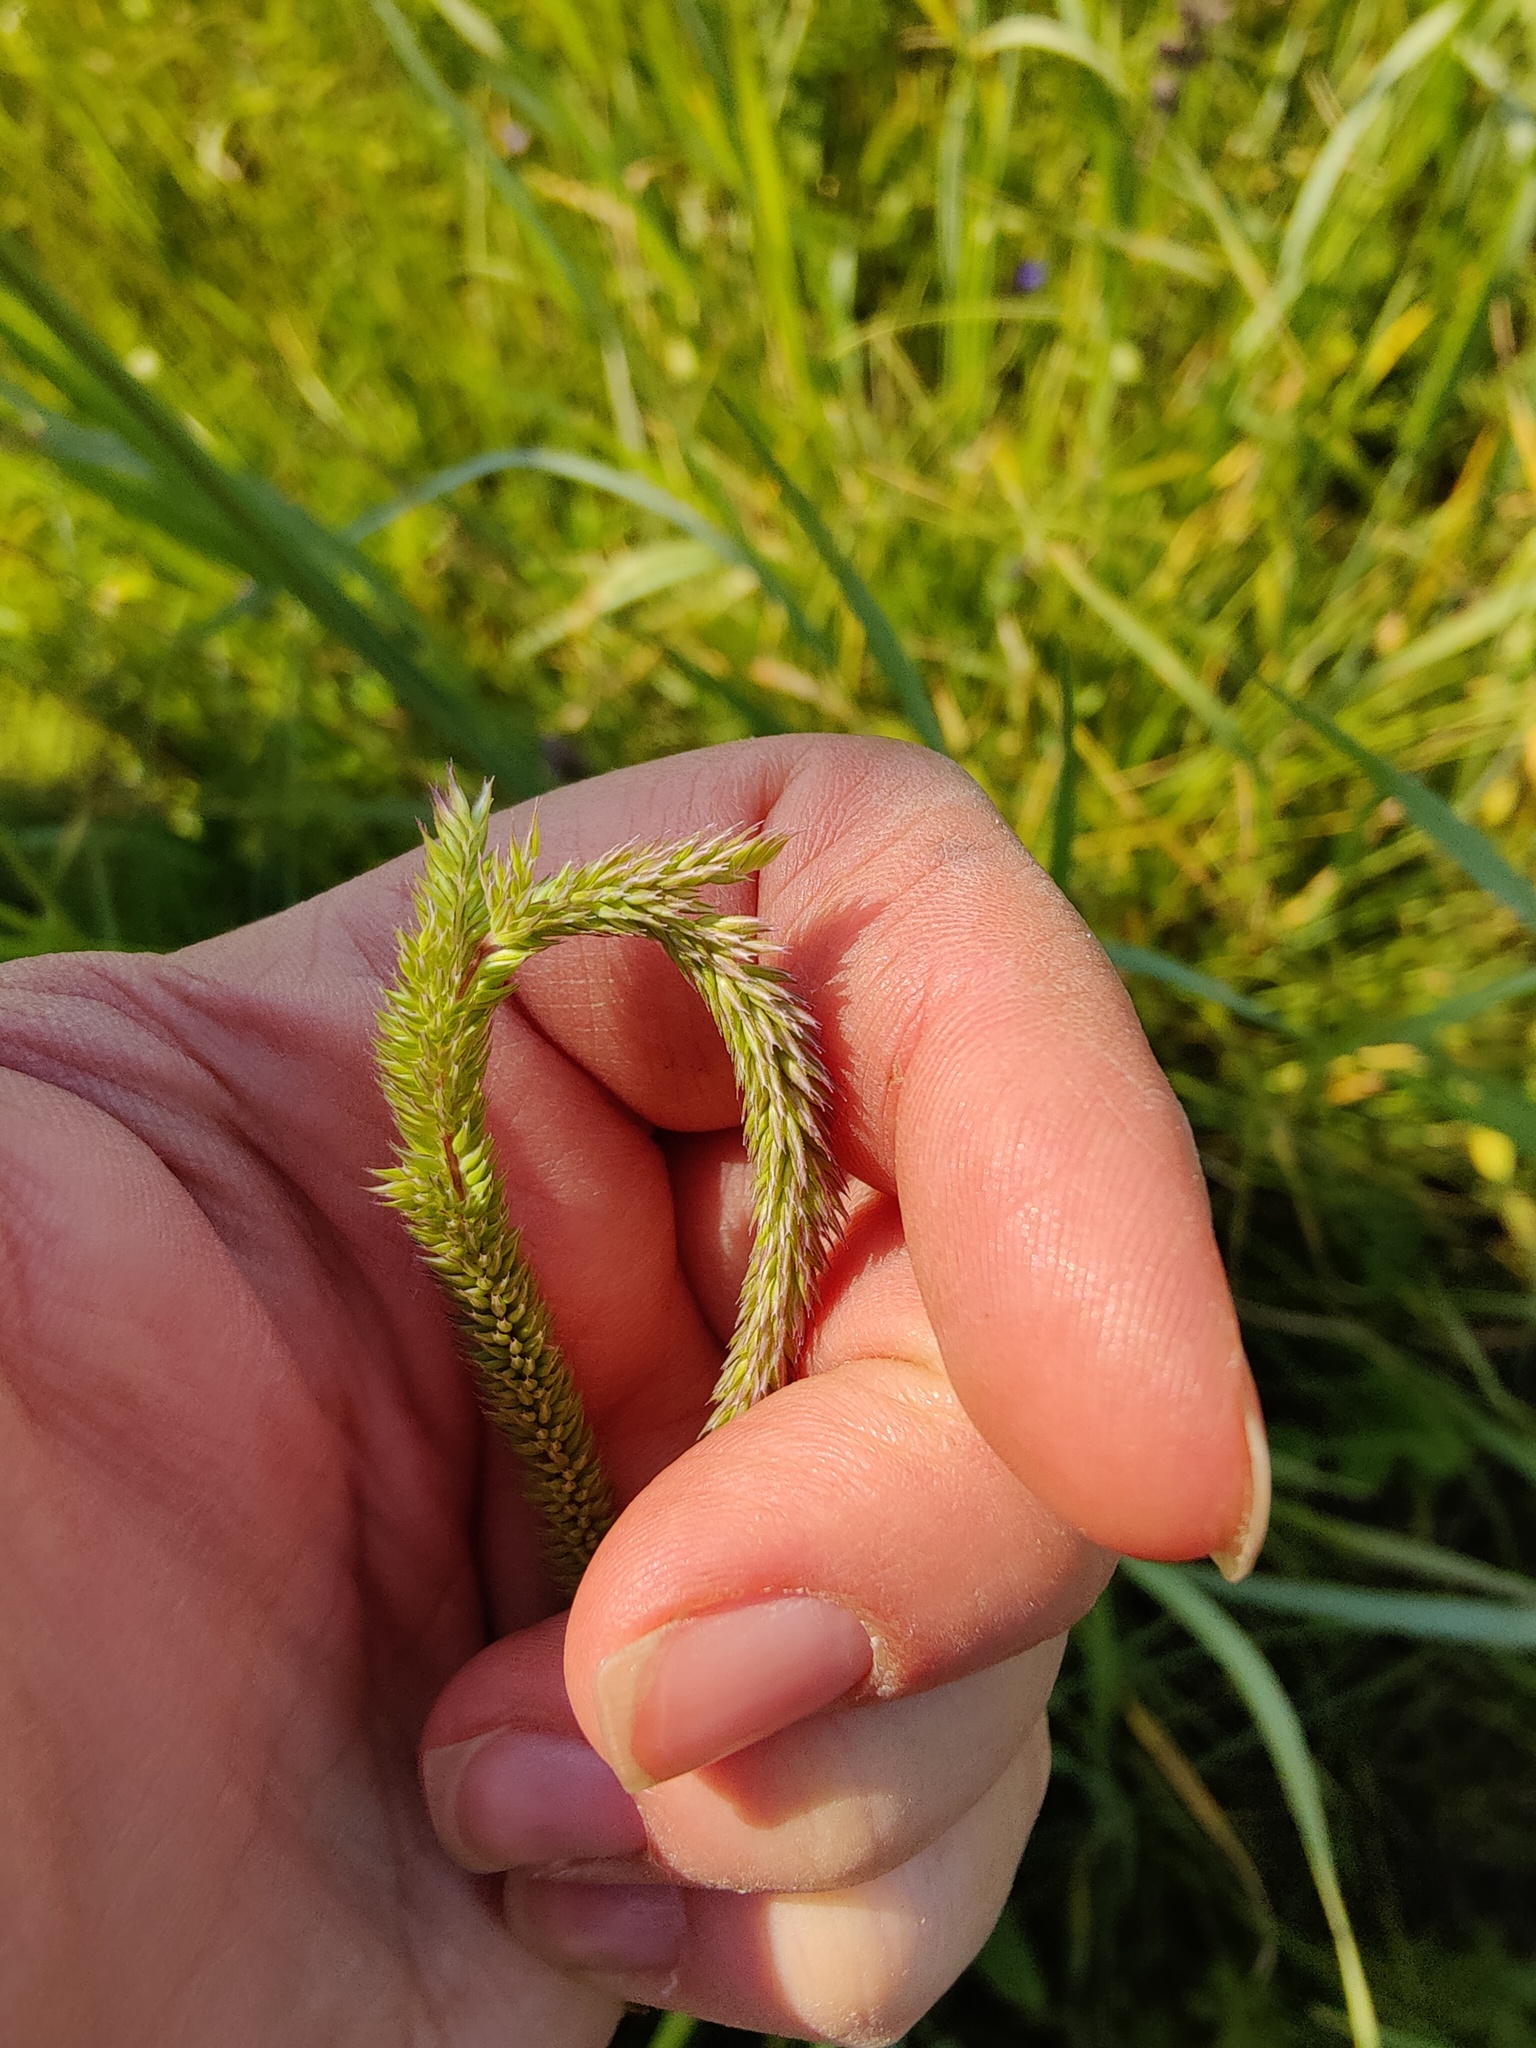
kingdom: Plantae
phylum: Tracheophyta
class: Liliopsida
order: Poales
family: Poaceae
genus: Phleum
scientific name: Phleum phleoides
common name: Purple-stem cat's-tail
